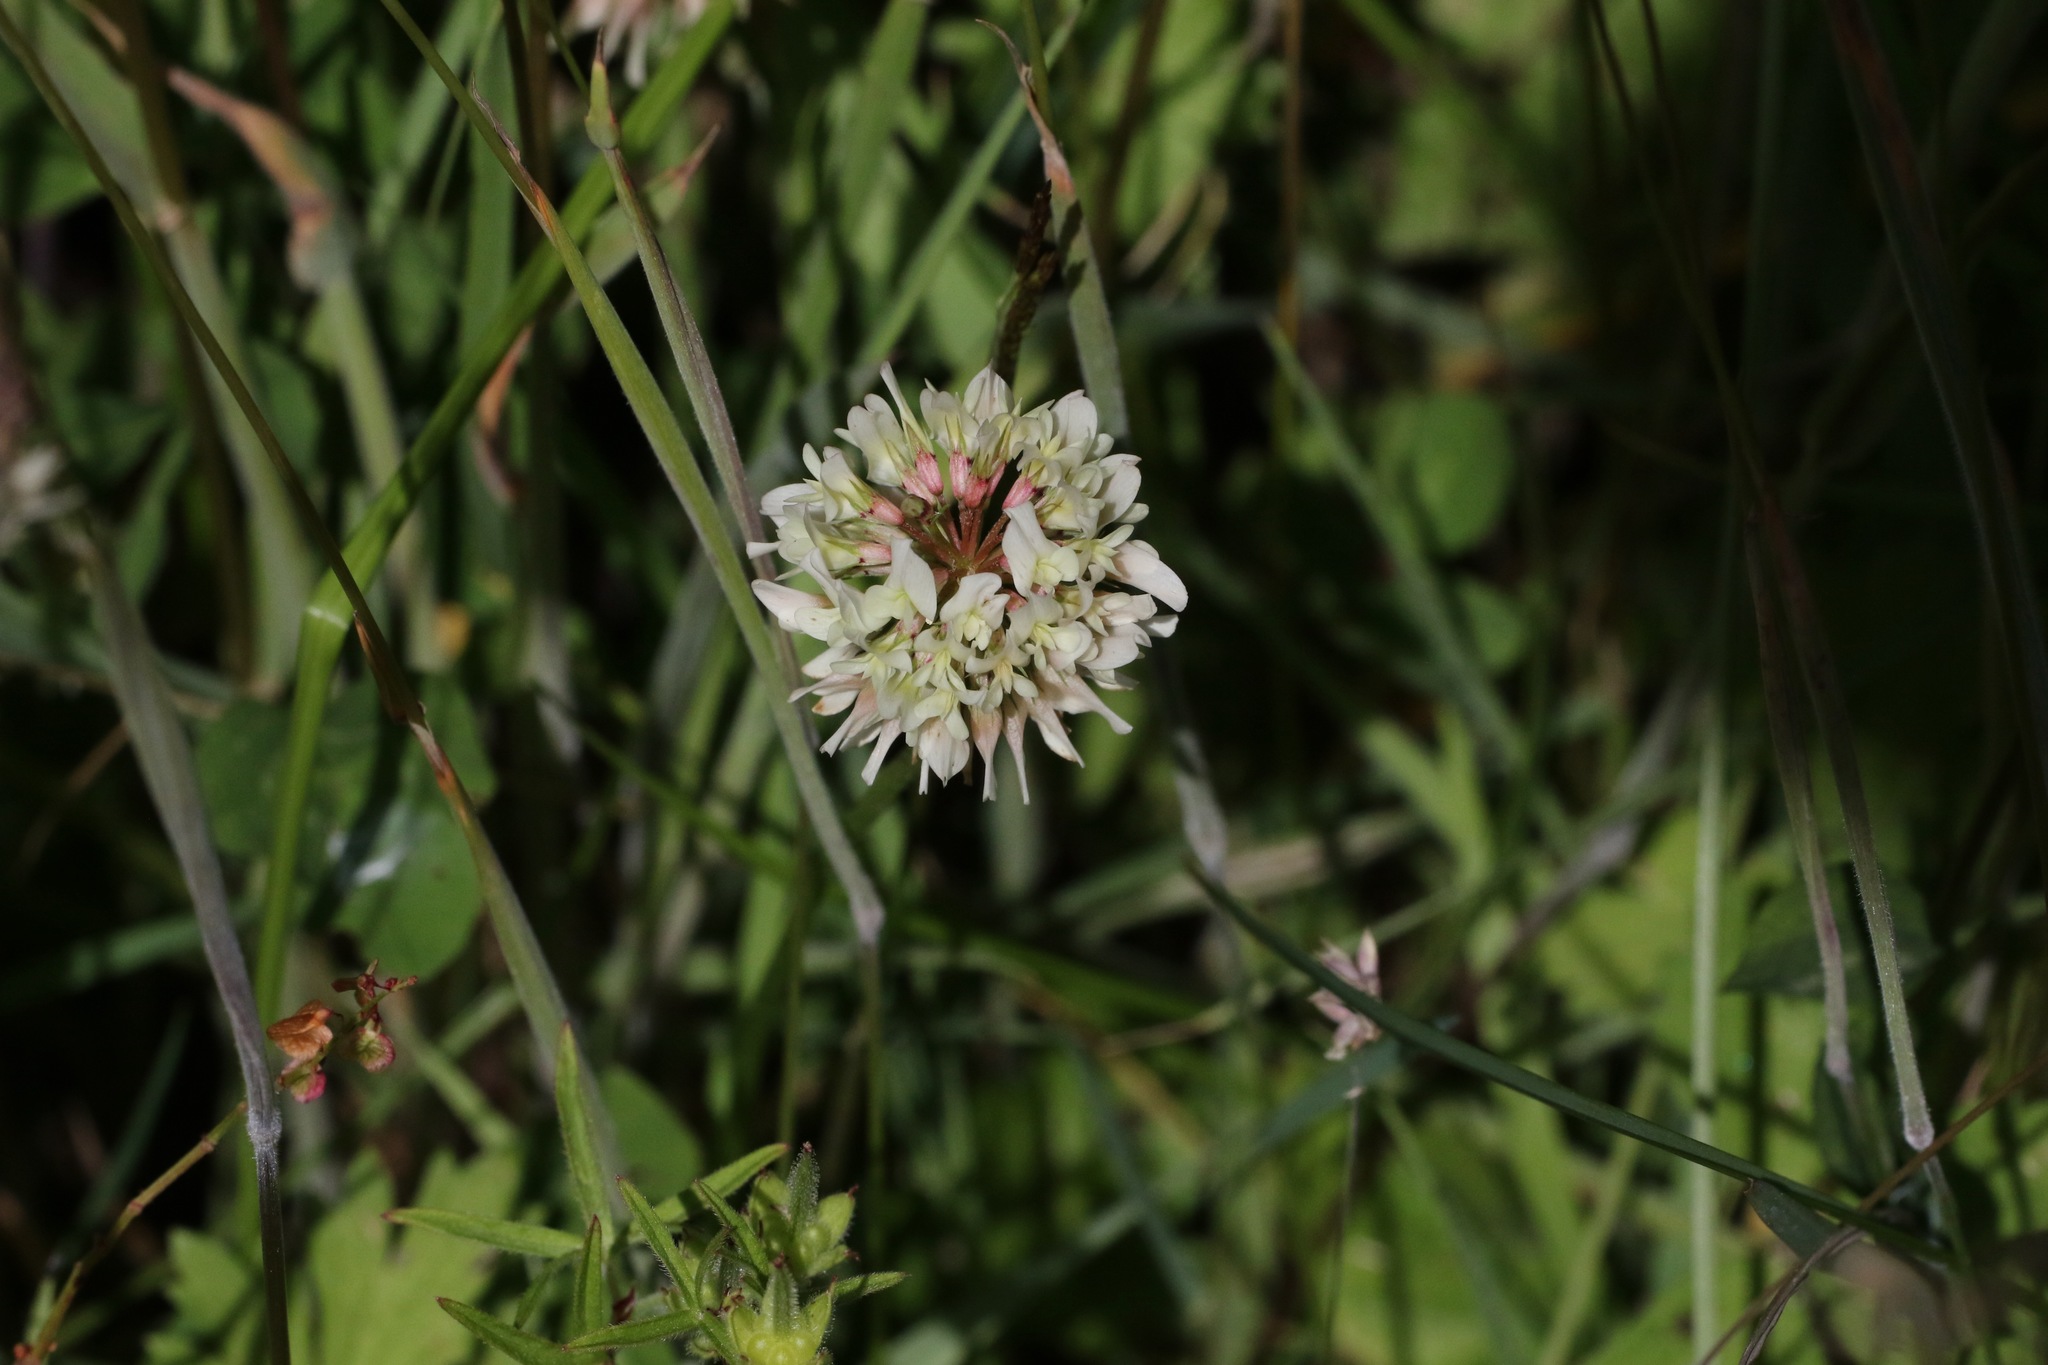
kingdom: Plantae
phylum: Tracheophyta
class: Magnoliopsida
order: Fabales
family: Fabaceae
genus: Trifolium
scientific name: Trifolium repens
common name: White clover
